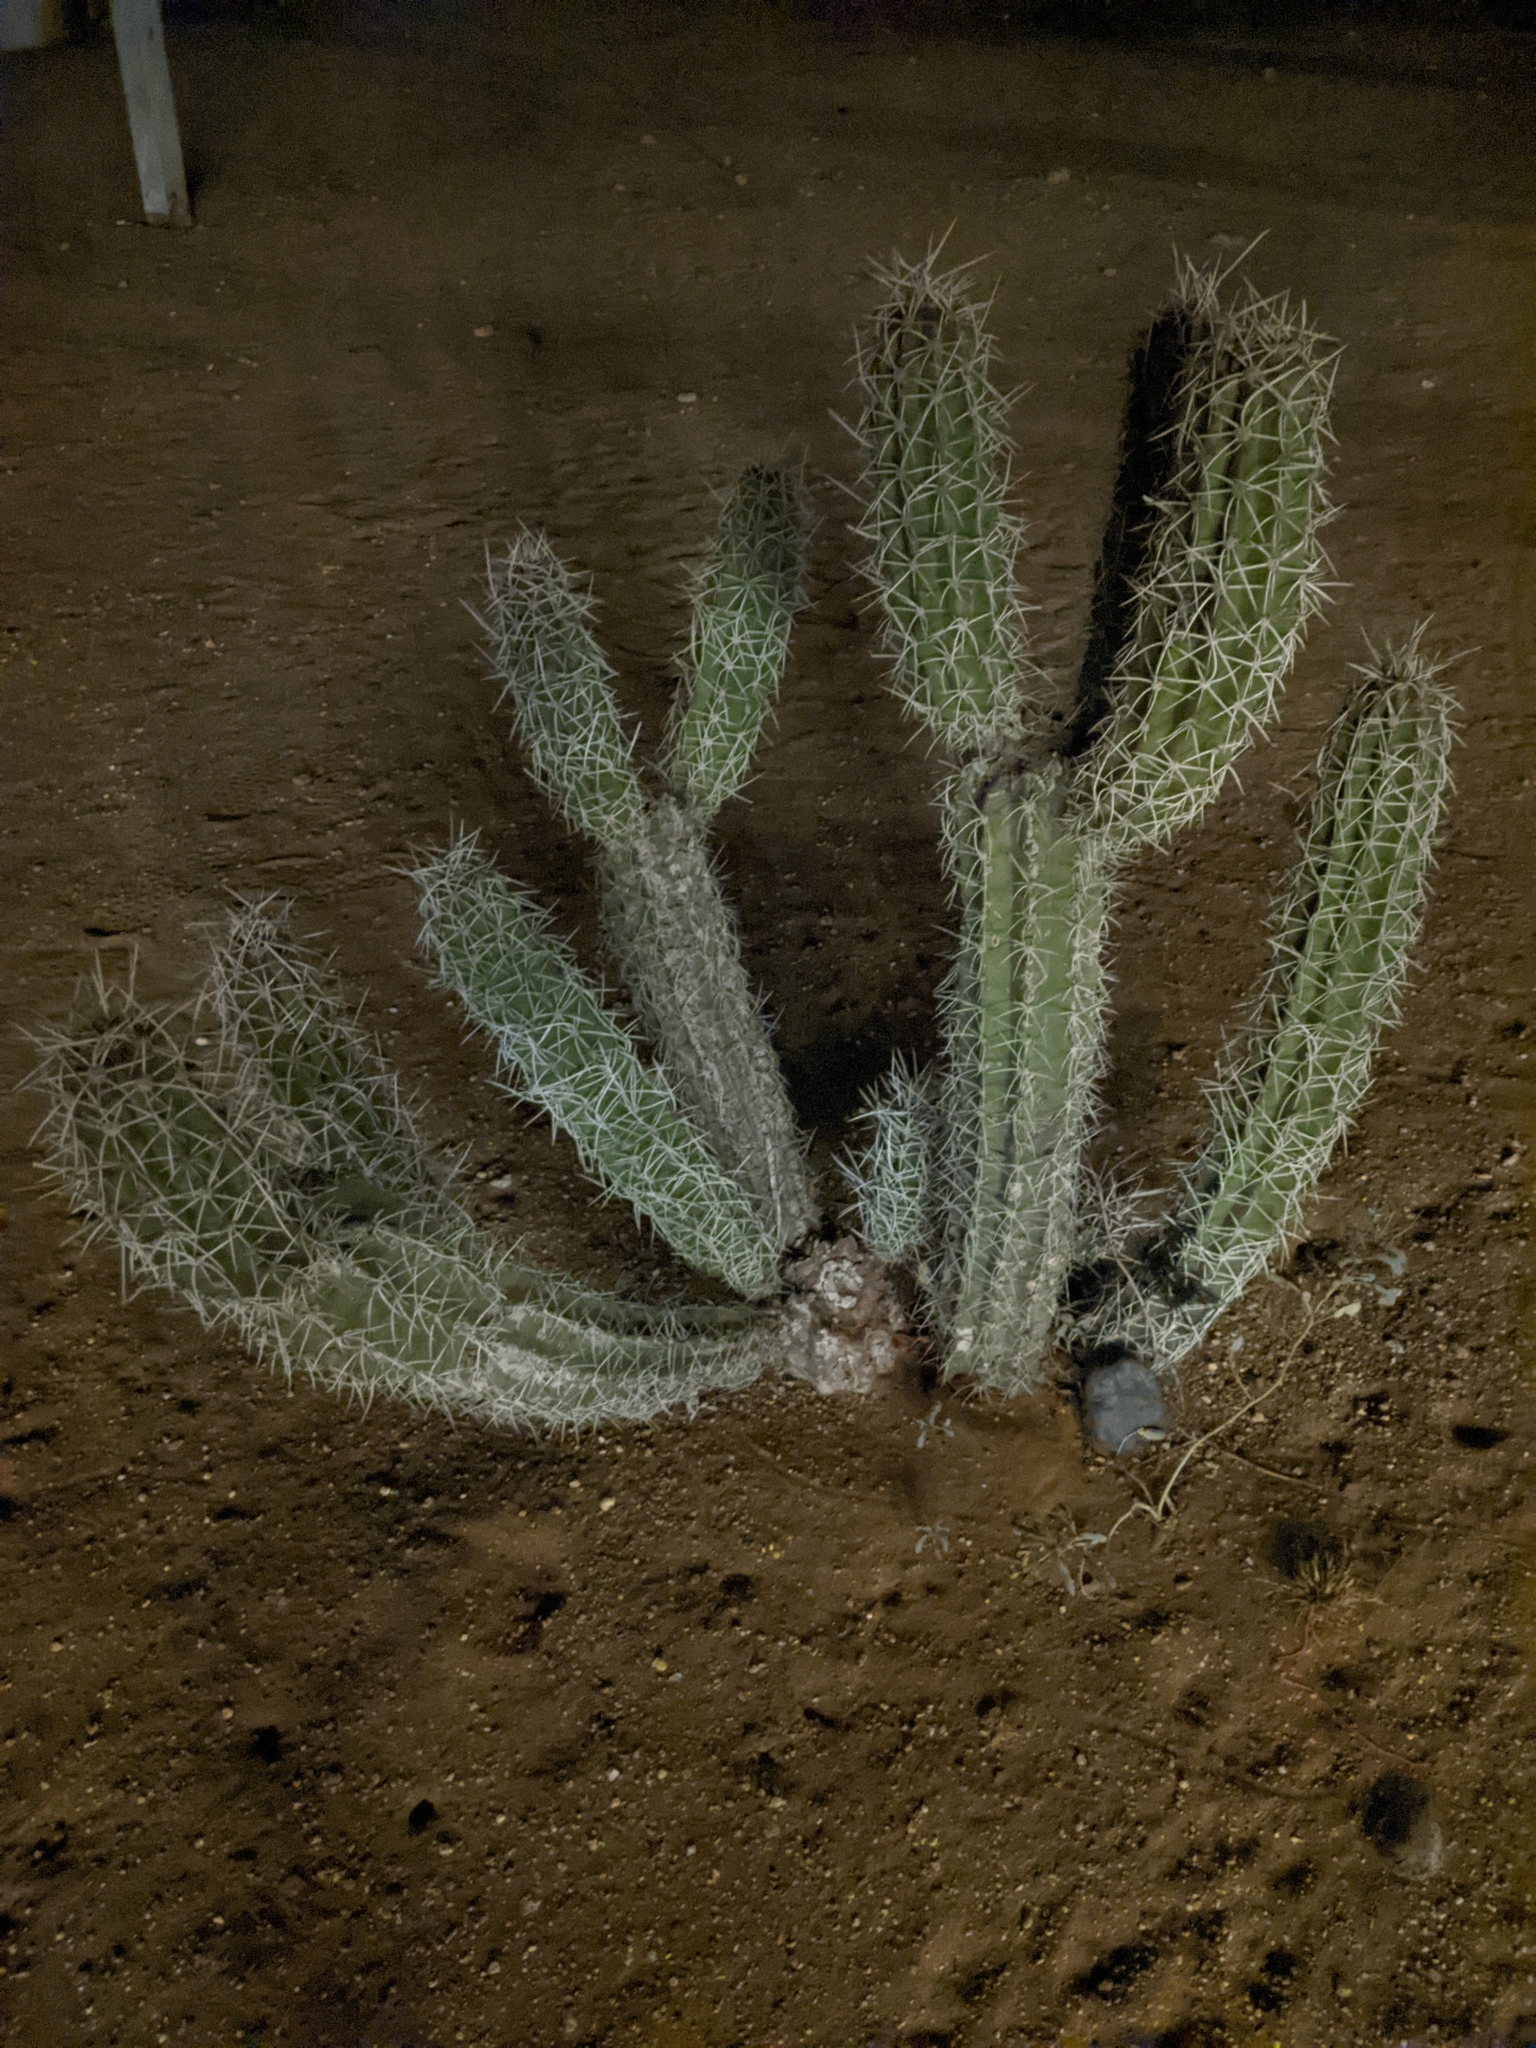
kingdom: Plantae
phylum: Tracheophyta
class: Magnoliopsida
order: Caryophyllales
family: Cactaceae
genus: Stenocereus
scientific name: Stenocereus griseus
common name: Tall candelabra cactus
